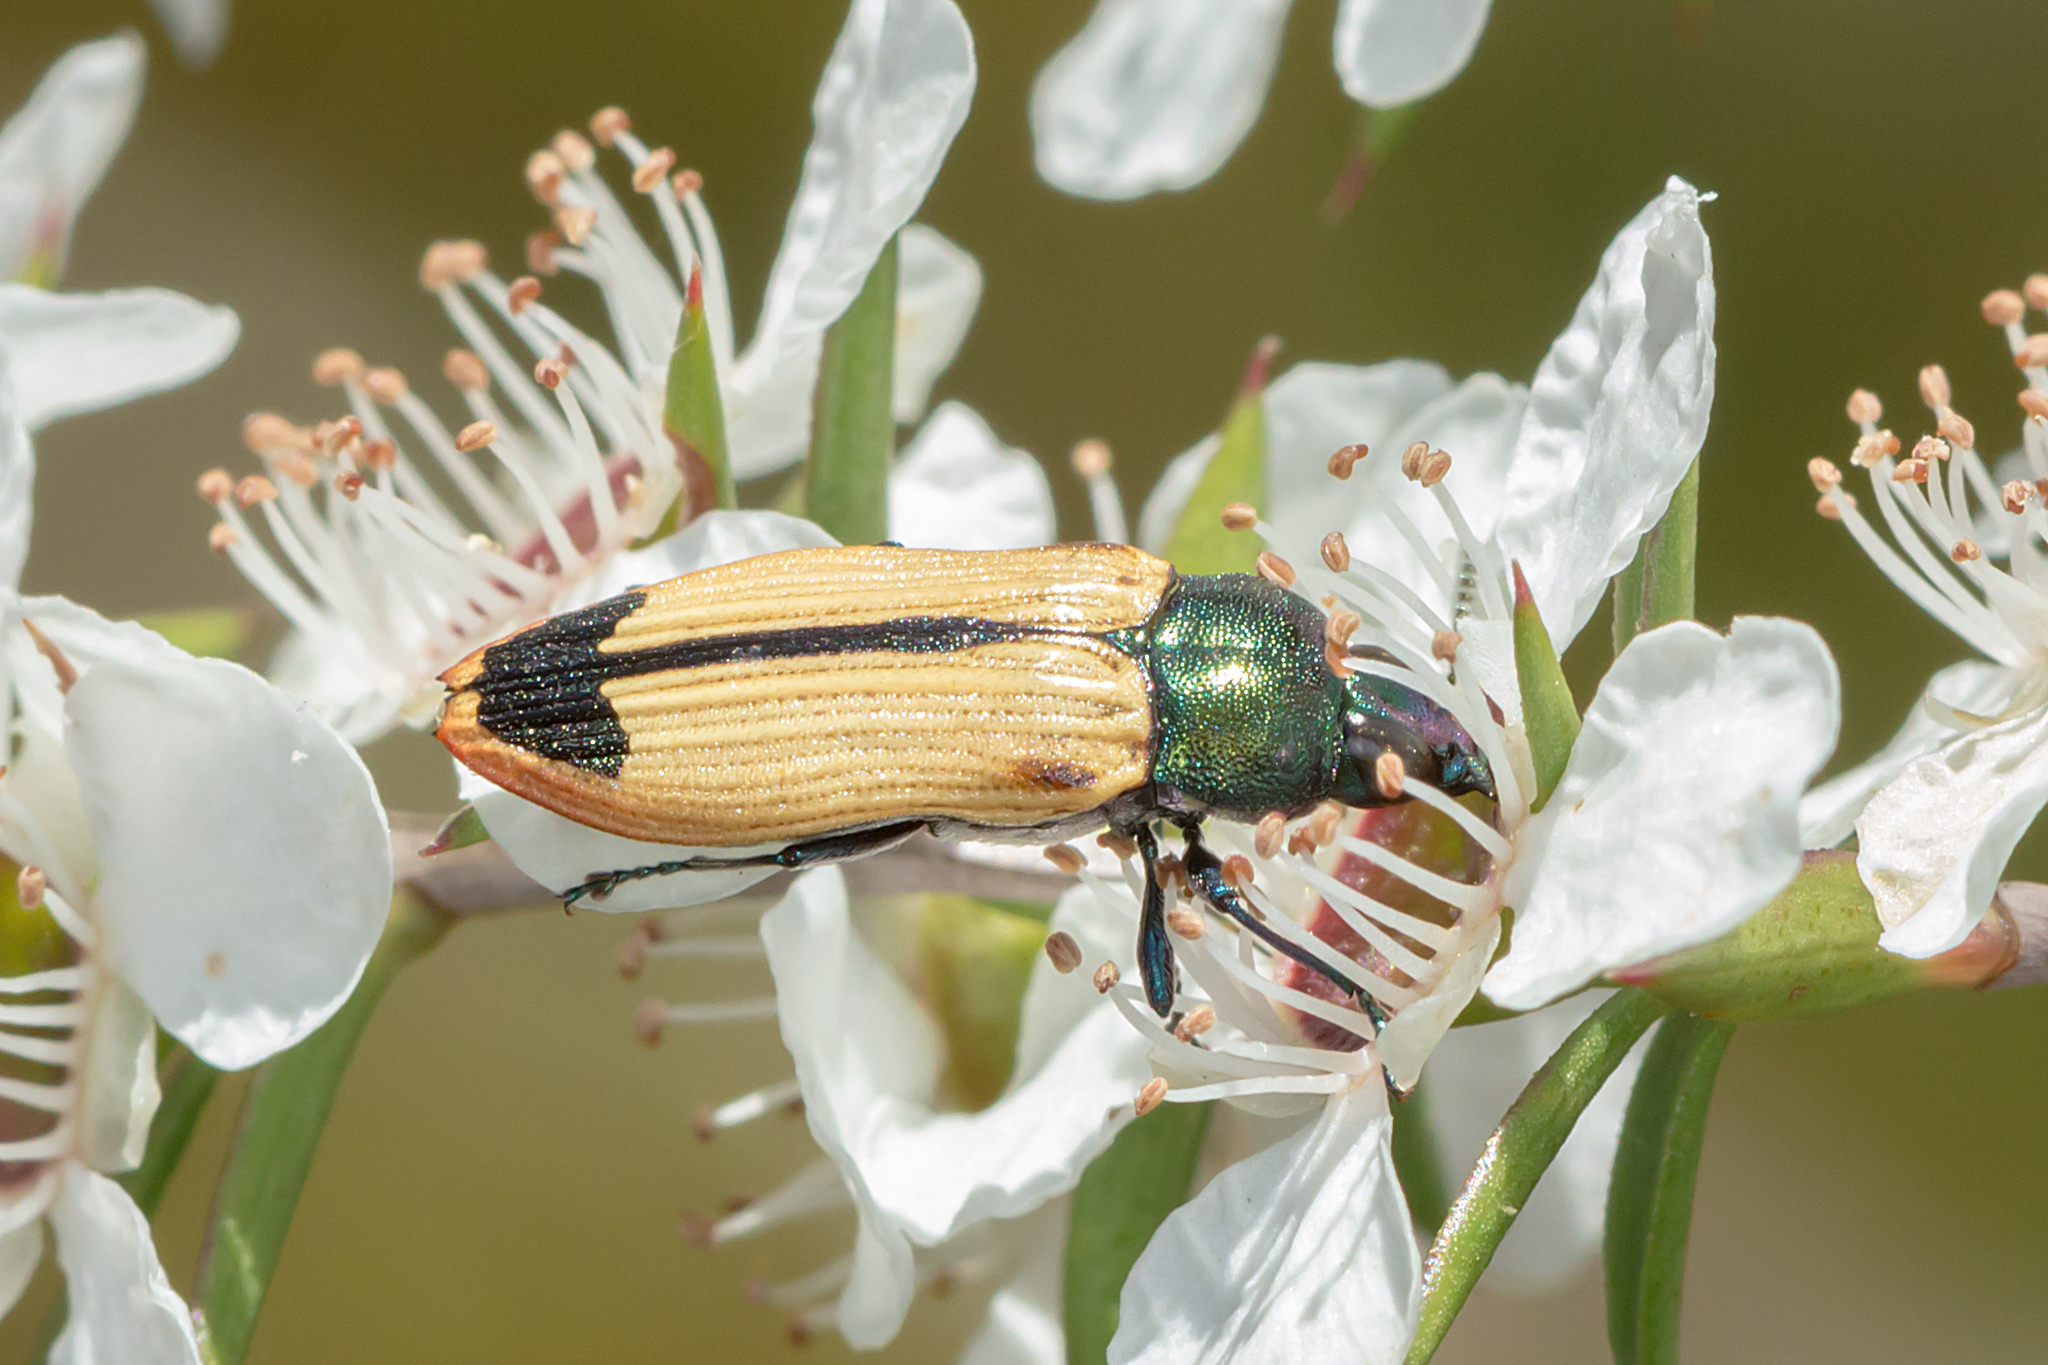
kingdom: Animalia
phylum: Arthropoda
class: Insecta
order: Coleoptera
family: Buprestidae
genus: Castiarina
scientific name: Castiarina fossoria
